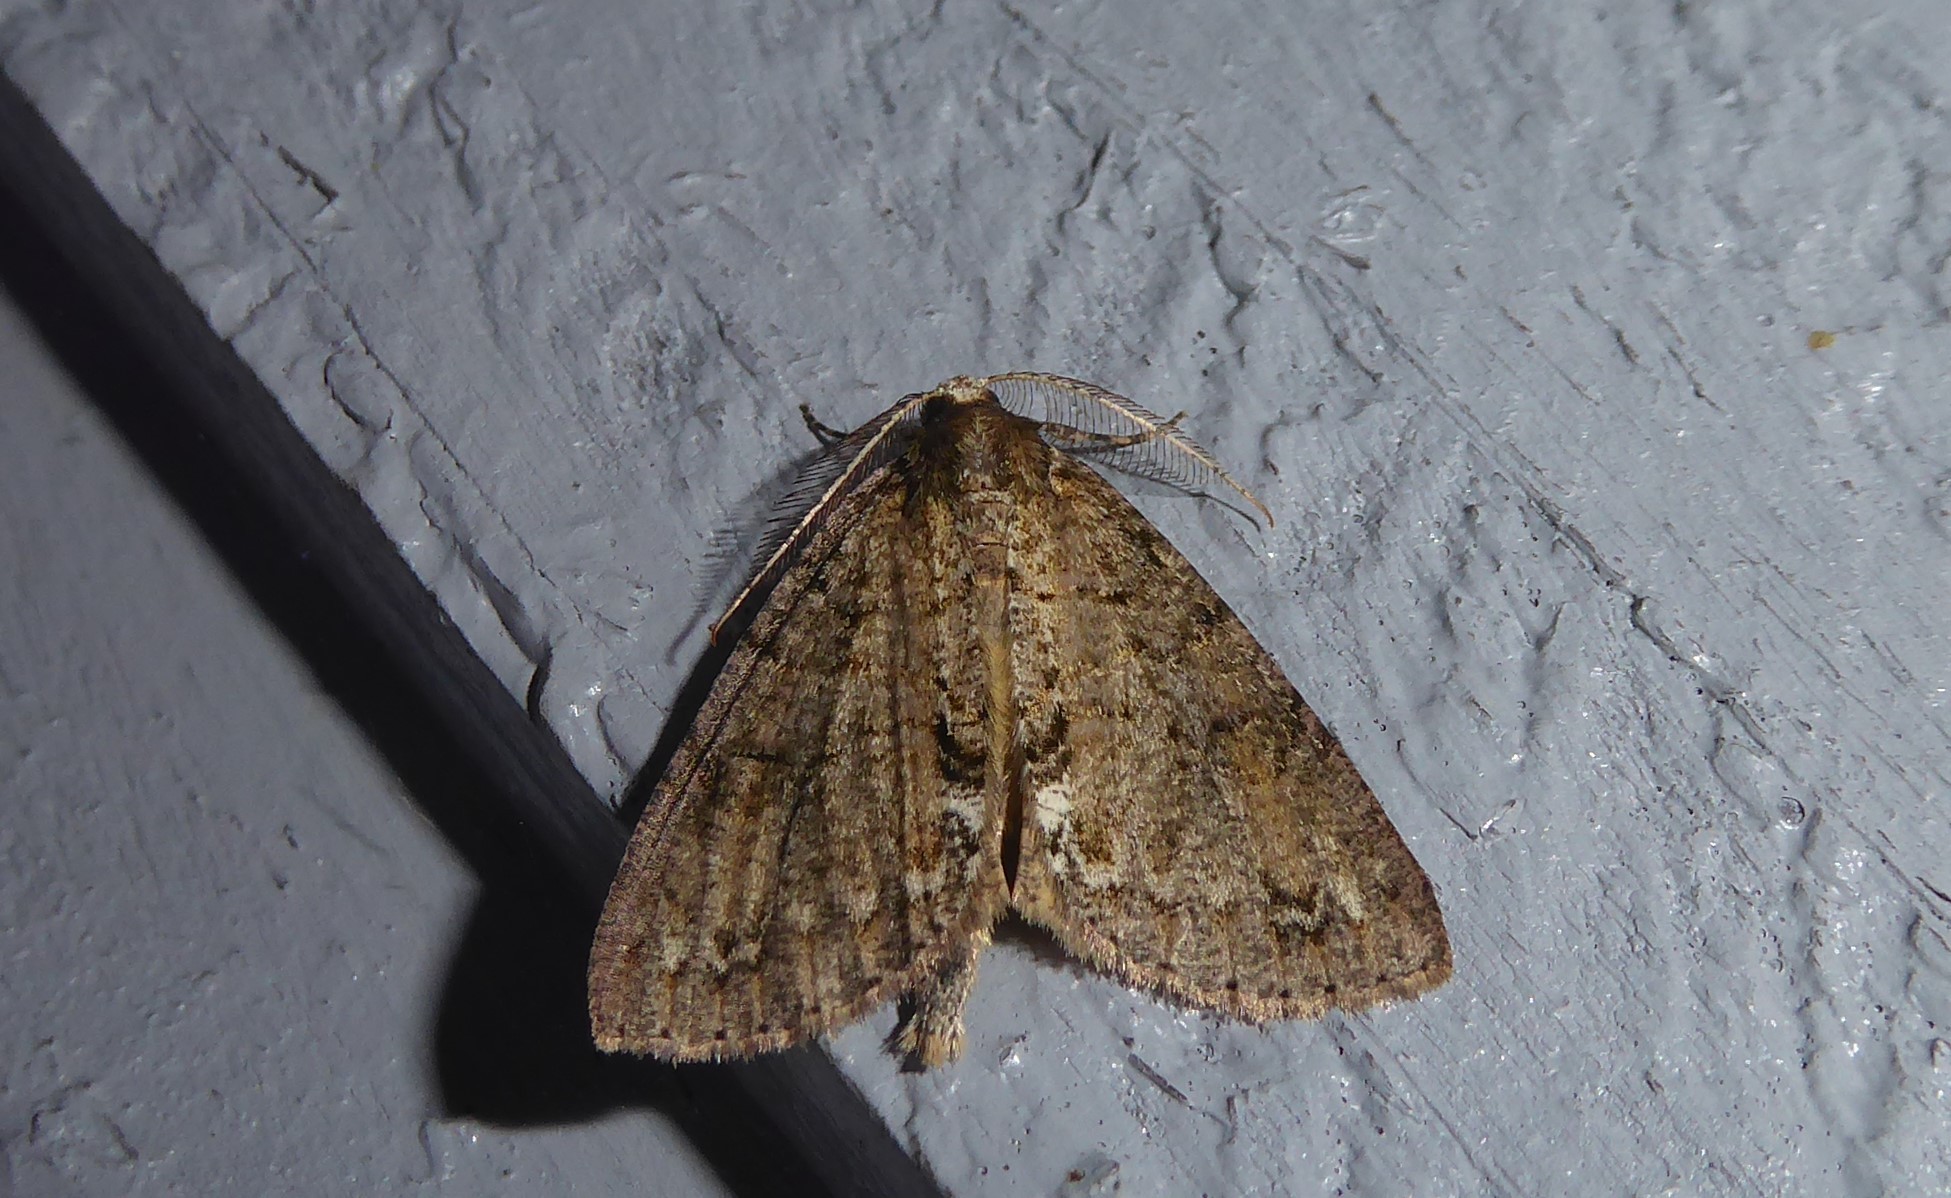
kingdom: Animalia
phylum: Arthropoda
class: Insecta
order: Lepidoptera
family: Geometridae
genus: Pseudocoremia
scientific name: Pseudocoremia suavis
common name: Common forest looper
